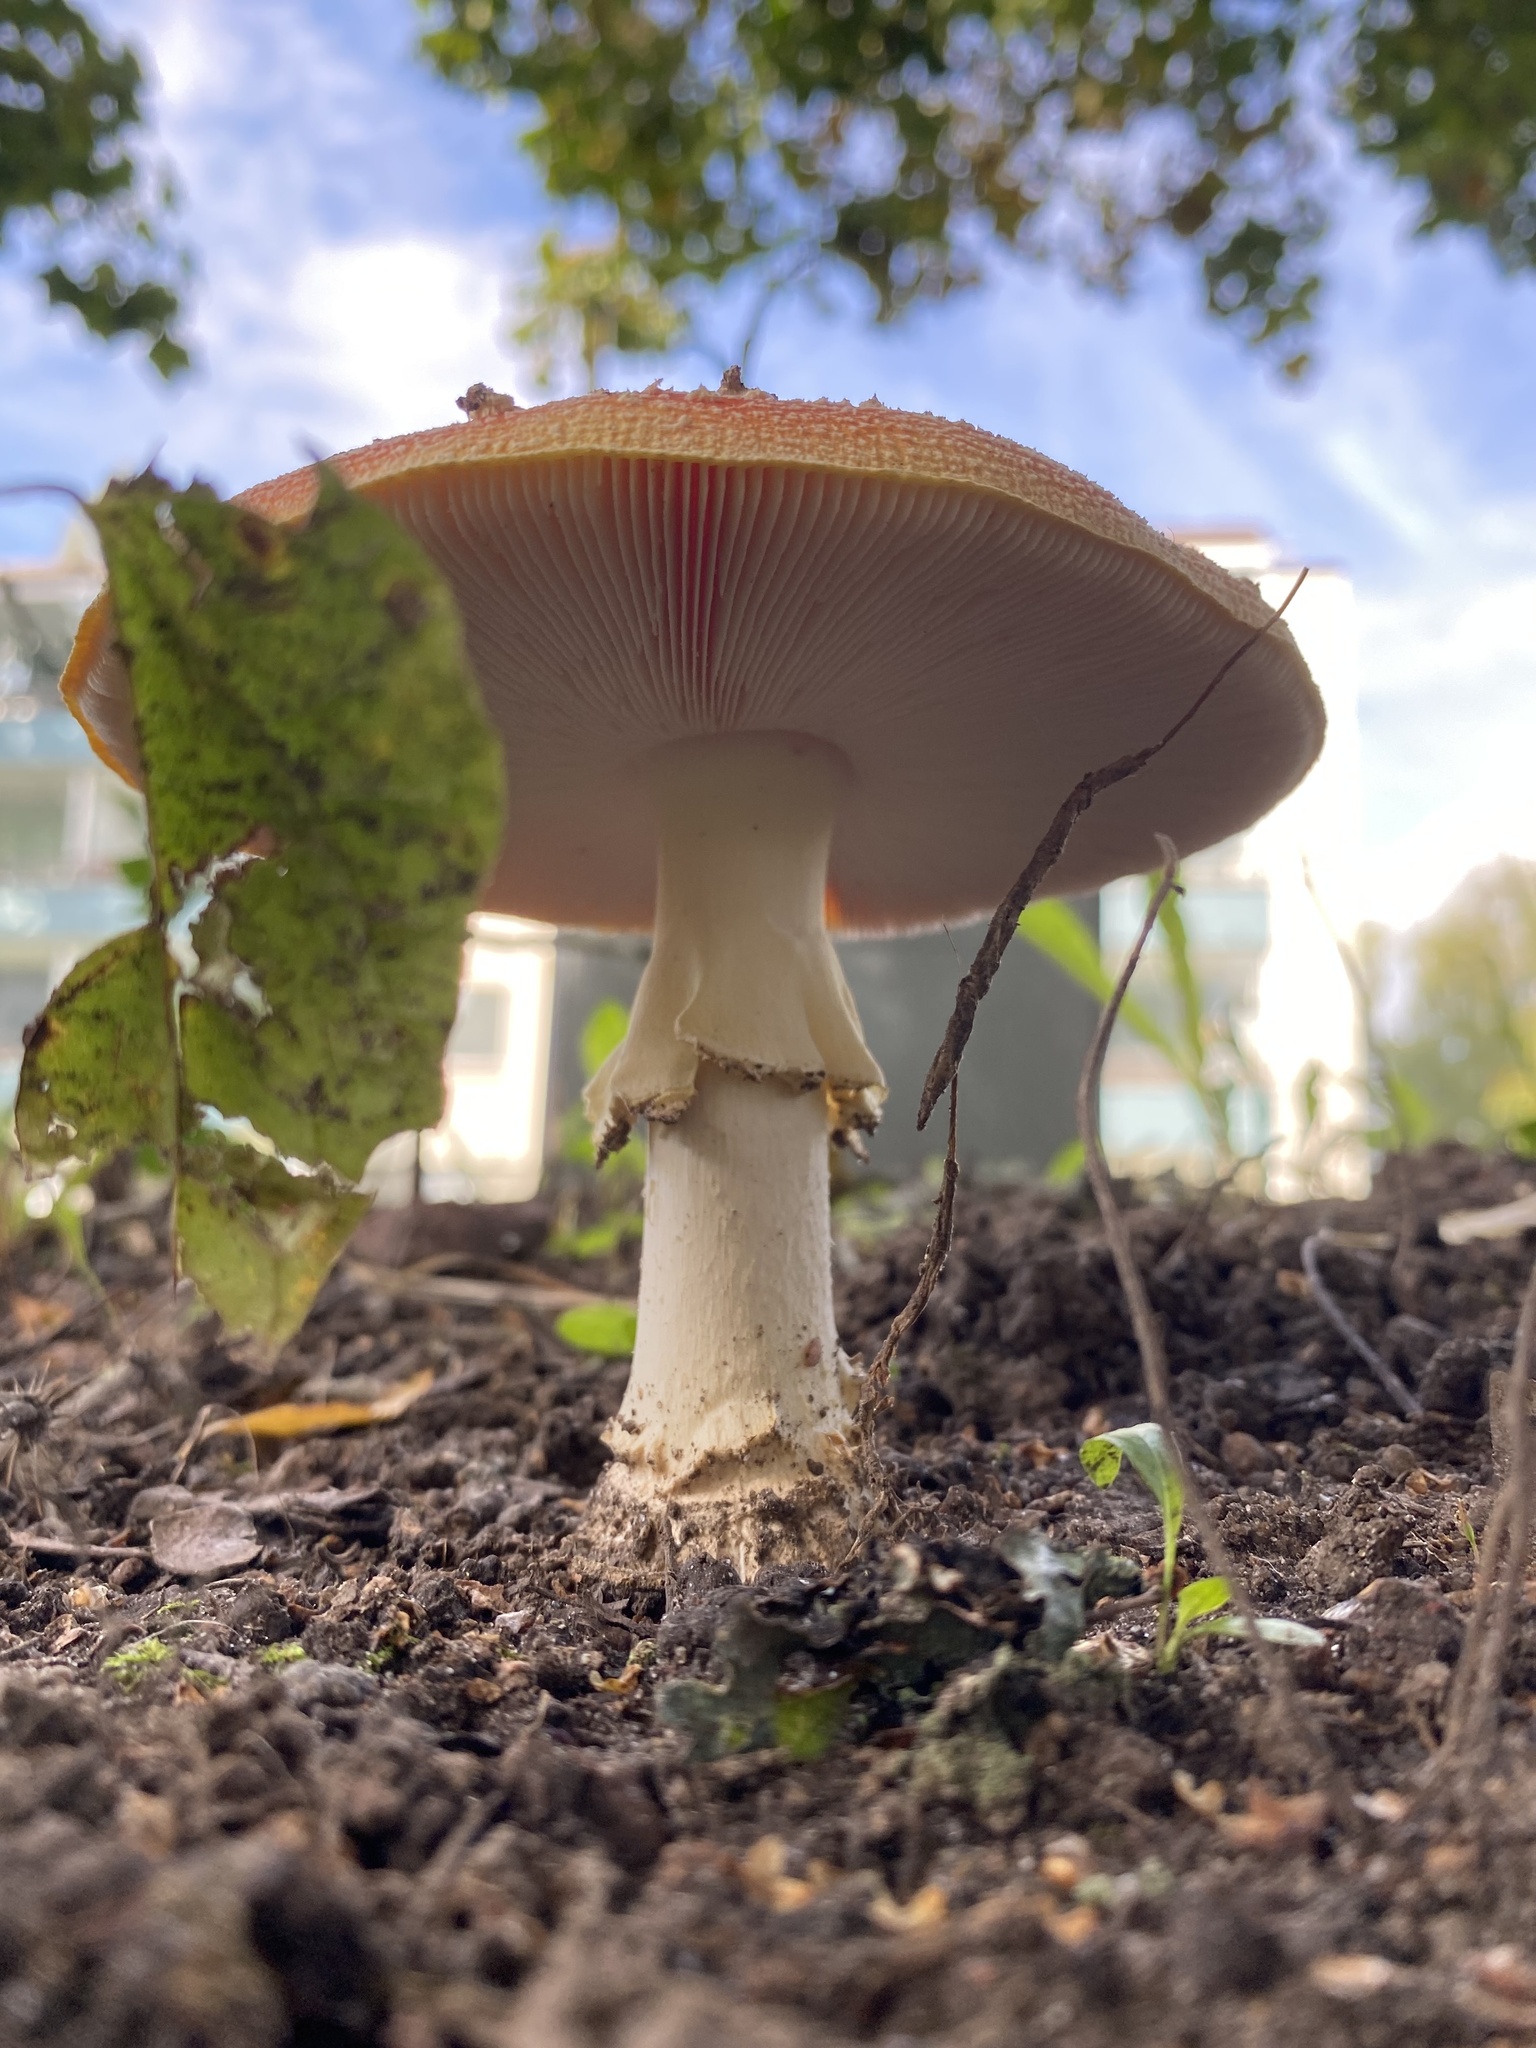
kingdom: Fungi
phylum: Basidiomycota
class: Agaricomycetes
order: Agaricales
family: Amanitaceae
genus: Amanita
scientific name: Amanita muscaria
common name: Fly agaric
